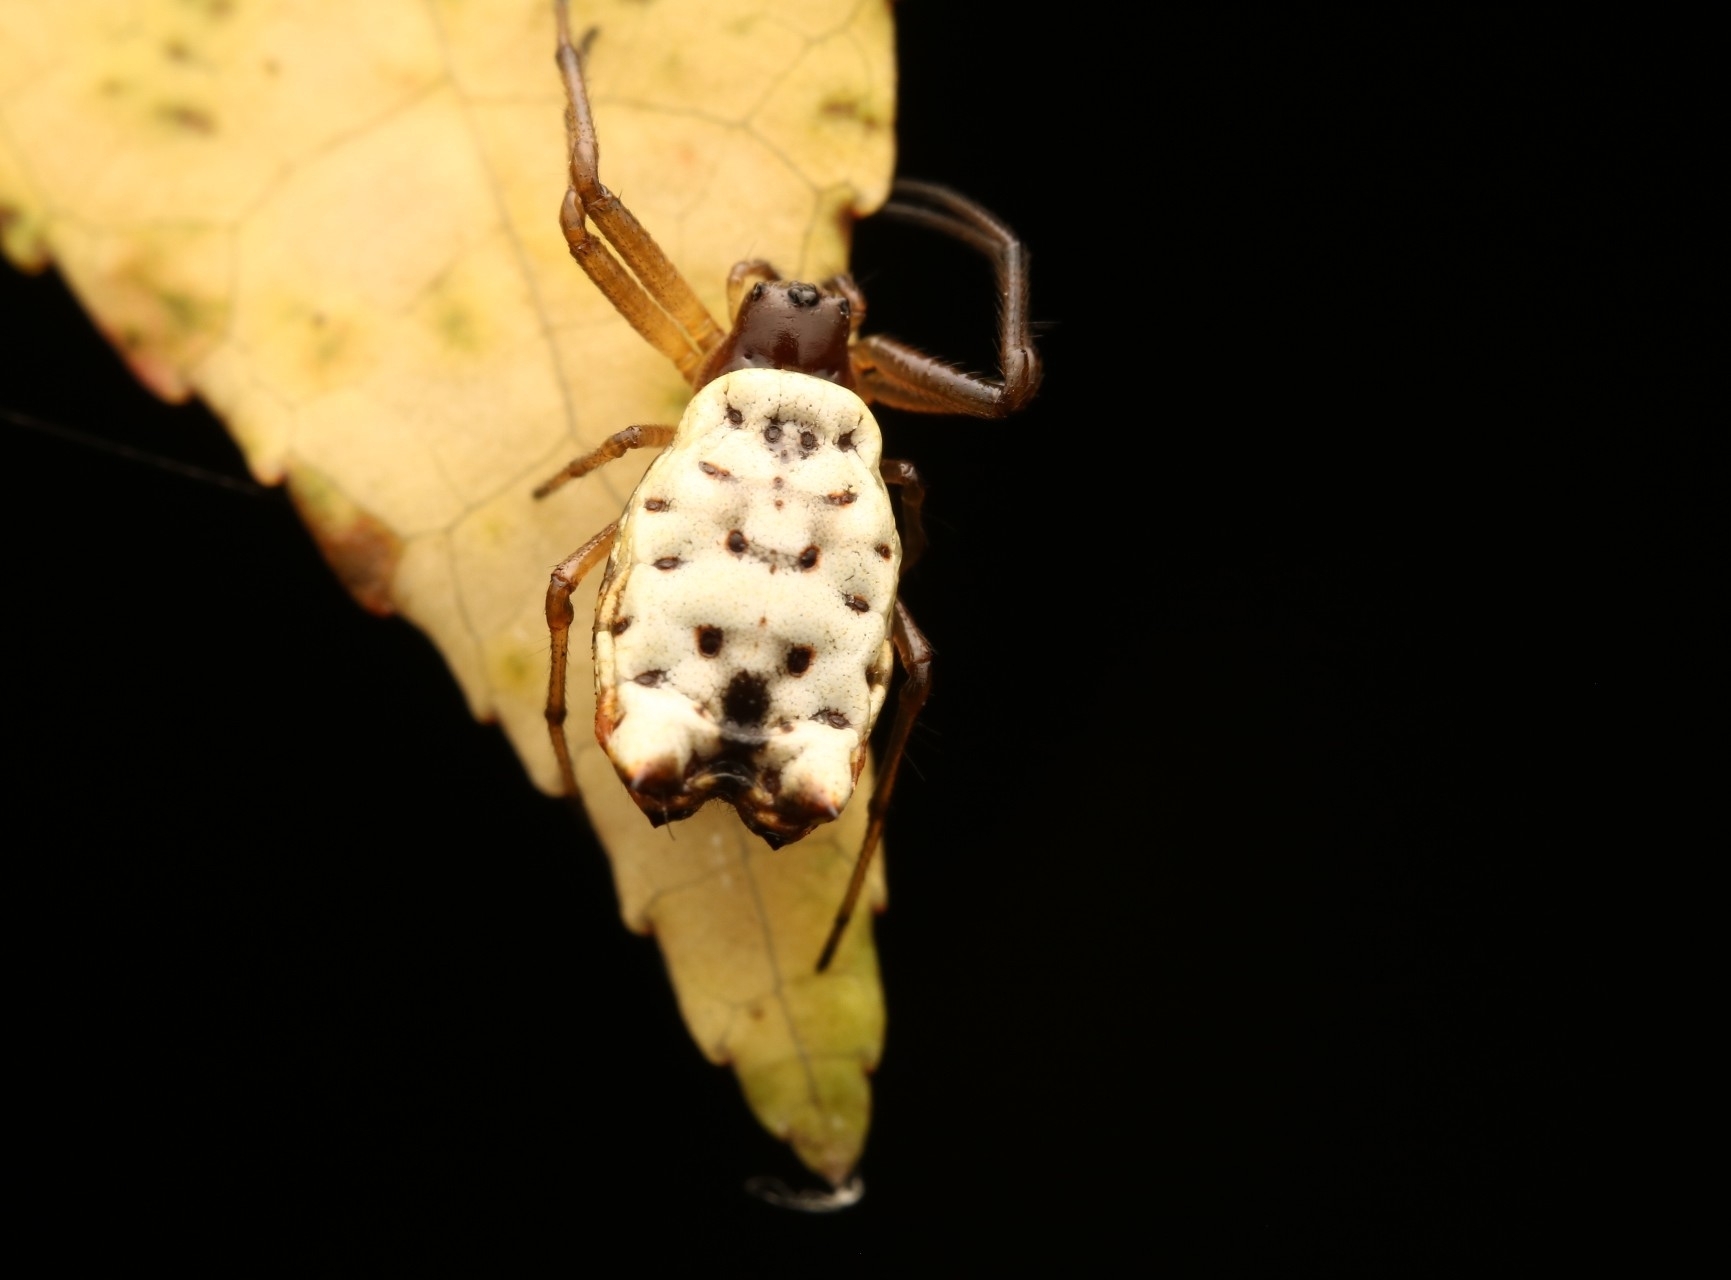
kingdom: Animalia
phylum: Arthropoda
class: Arachnida
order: Araneae
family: Araneidae
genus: Micrathena
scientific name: Micrathena mitrata
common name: Orb weavers
